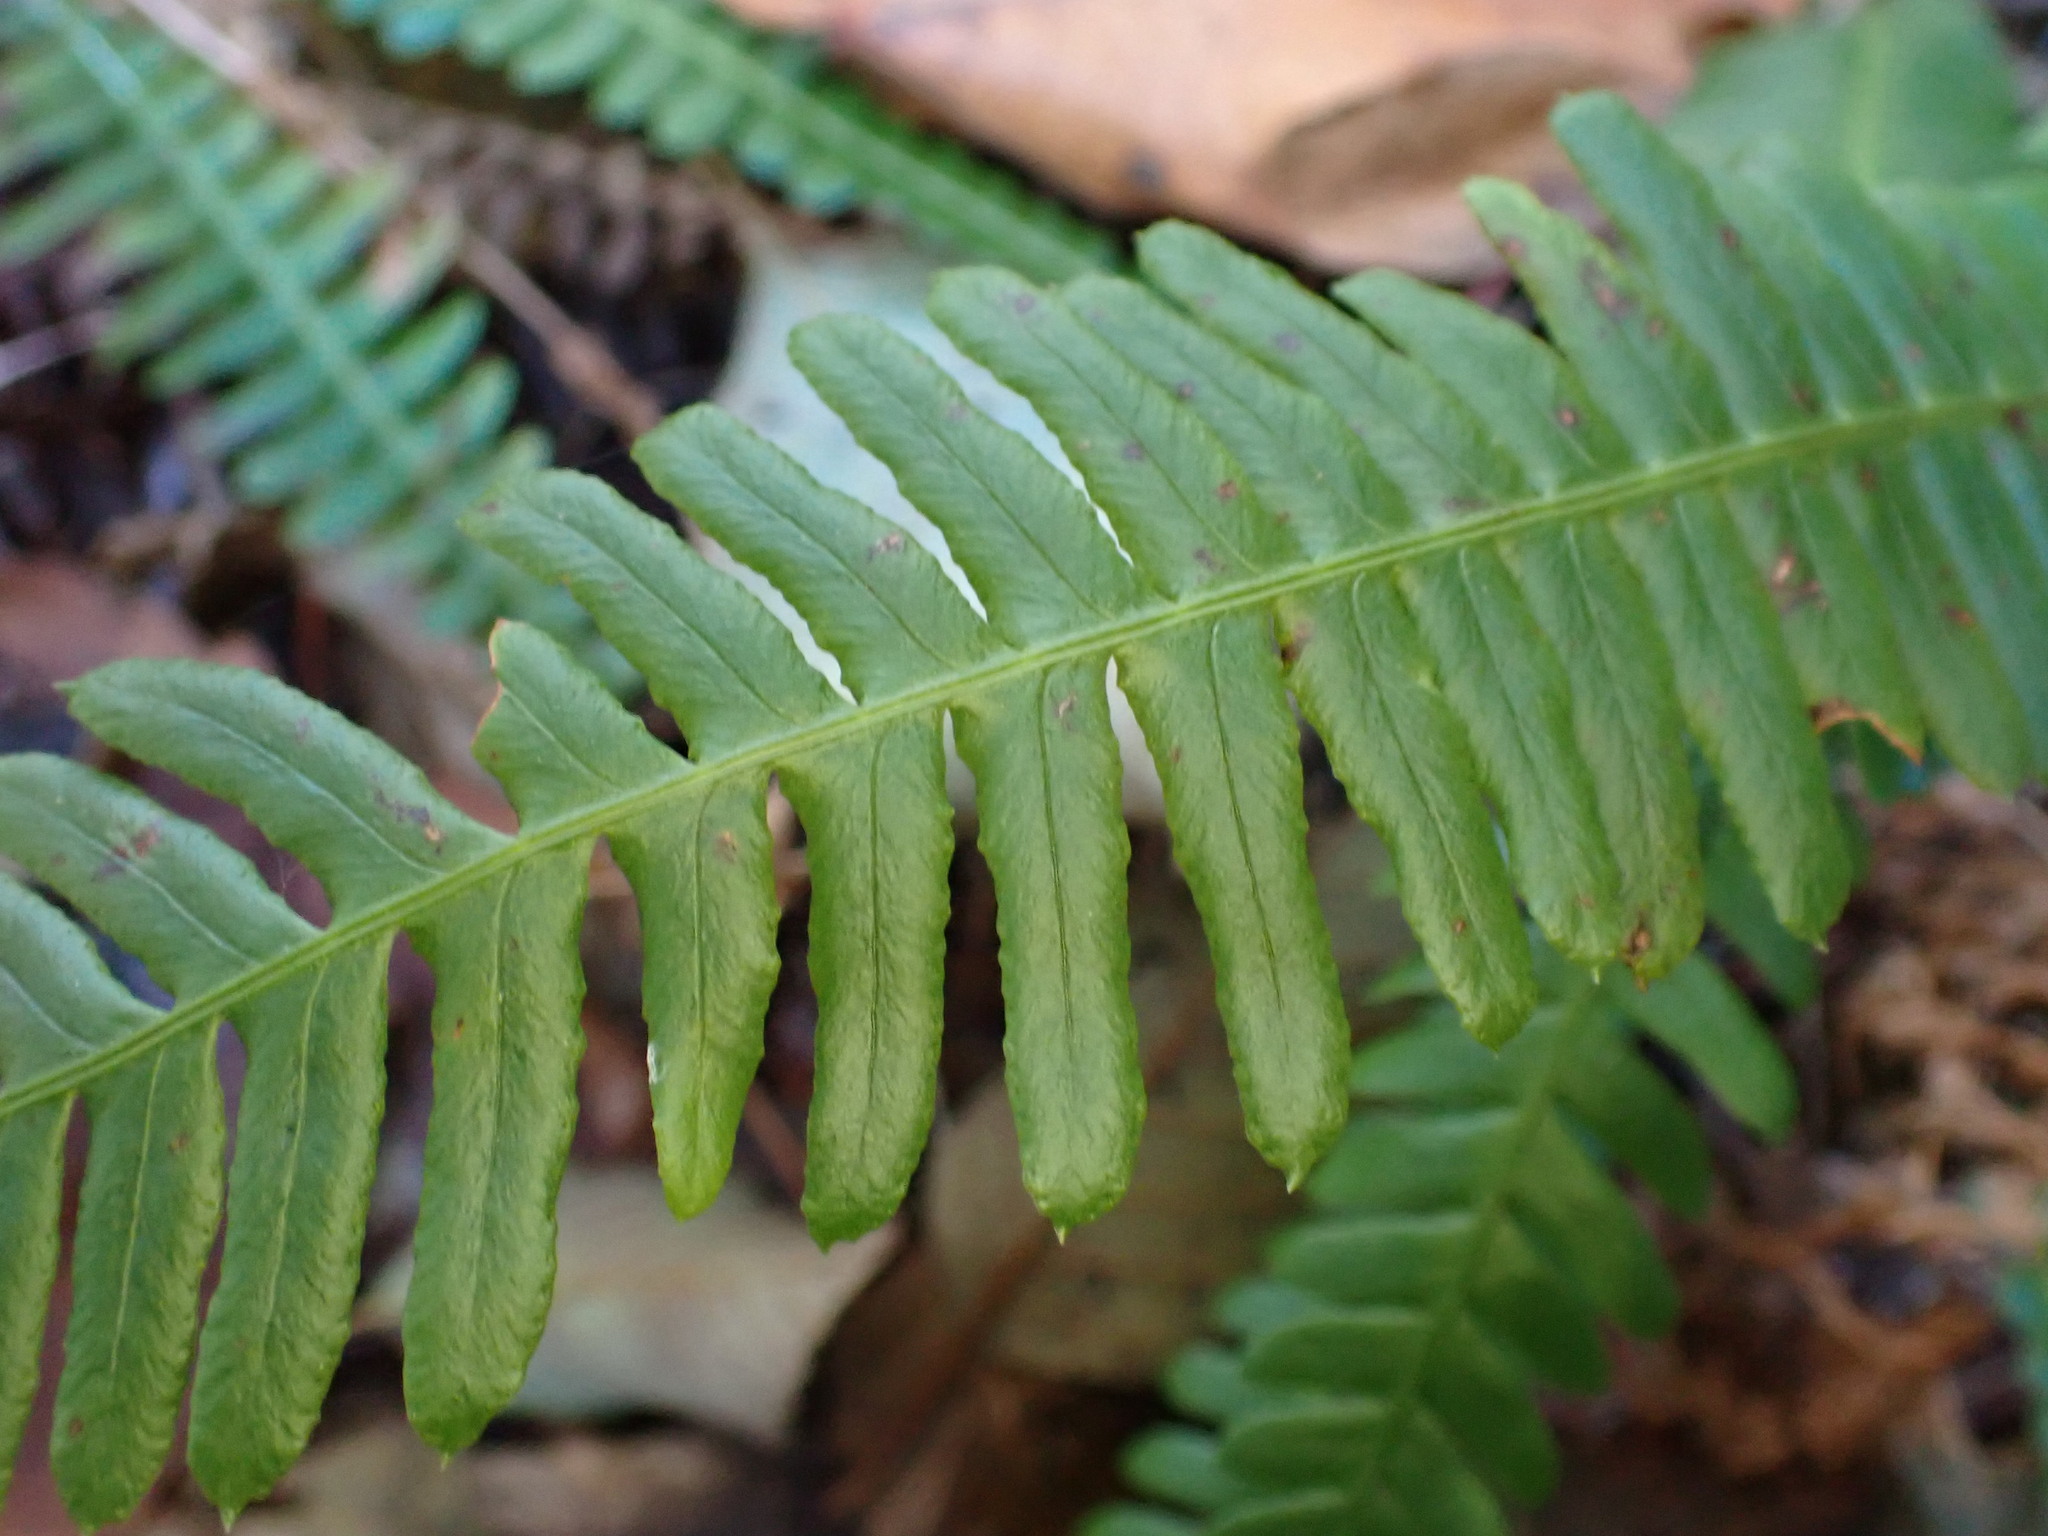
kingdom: Plantae
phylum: Tracheophyta
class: Polypodiopsida
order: Polypodiales
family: Blechnaceae
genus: Struthiopteris
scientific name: Struthiopteris spicant
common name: Deer fern
